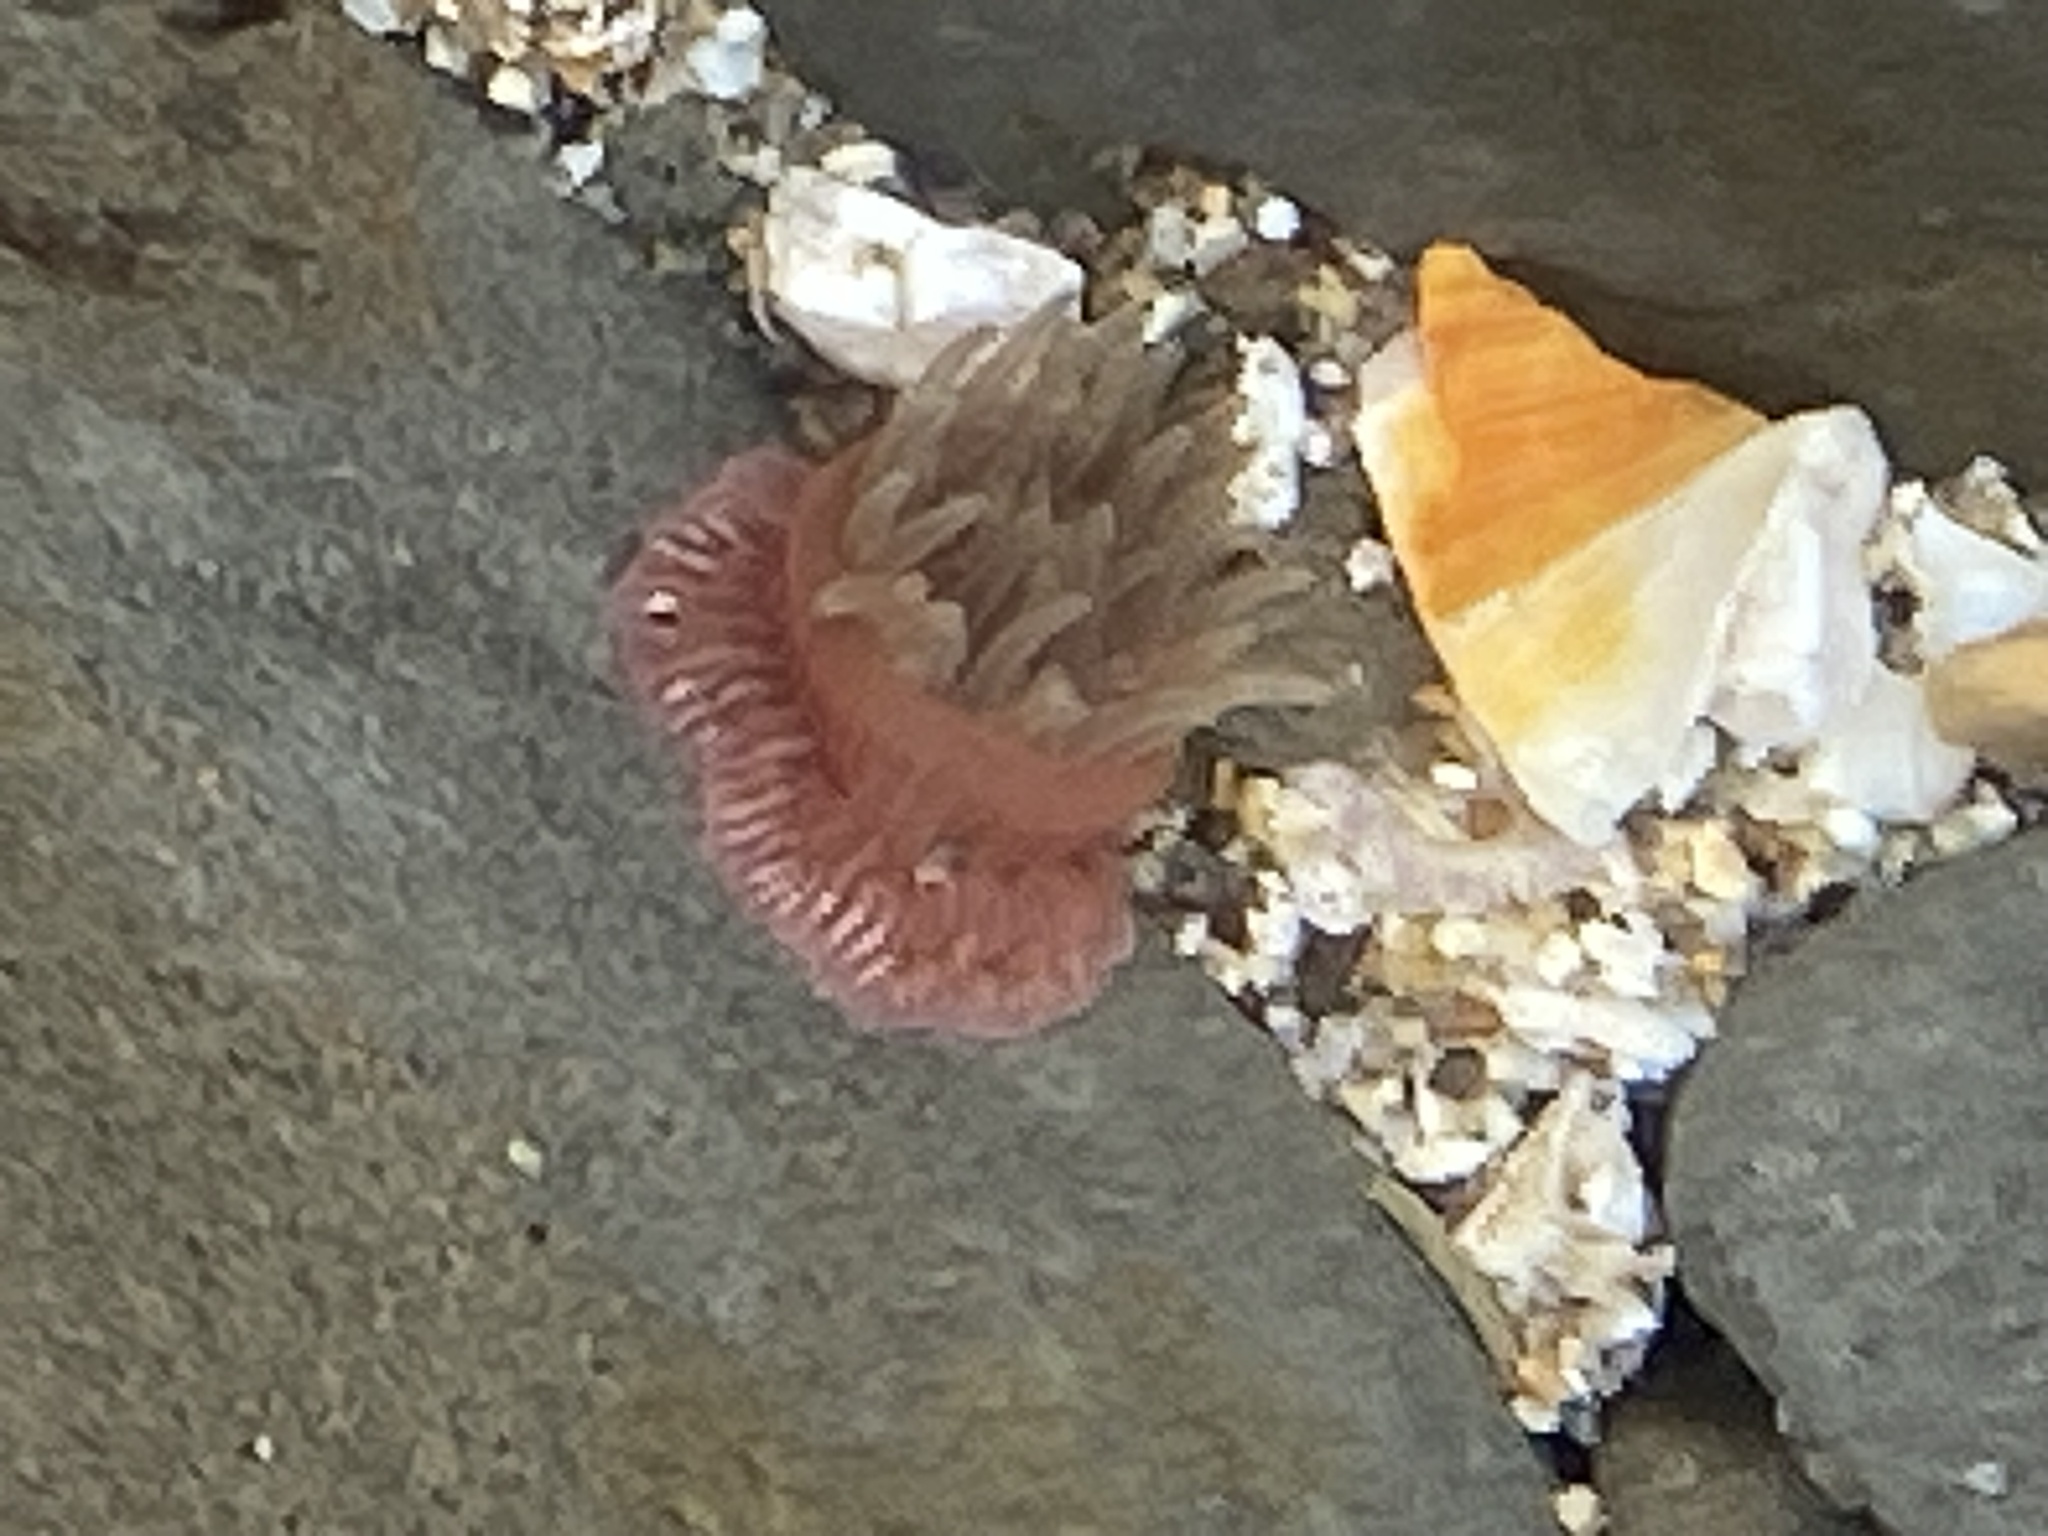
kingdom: Animalia
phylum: Cnidaria
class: Anthozoa
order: Actiniaria
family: Actiniidae
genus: Epiactis
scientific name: Epiactis prolifera
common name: Brooding anemone
